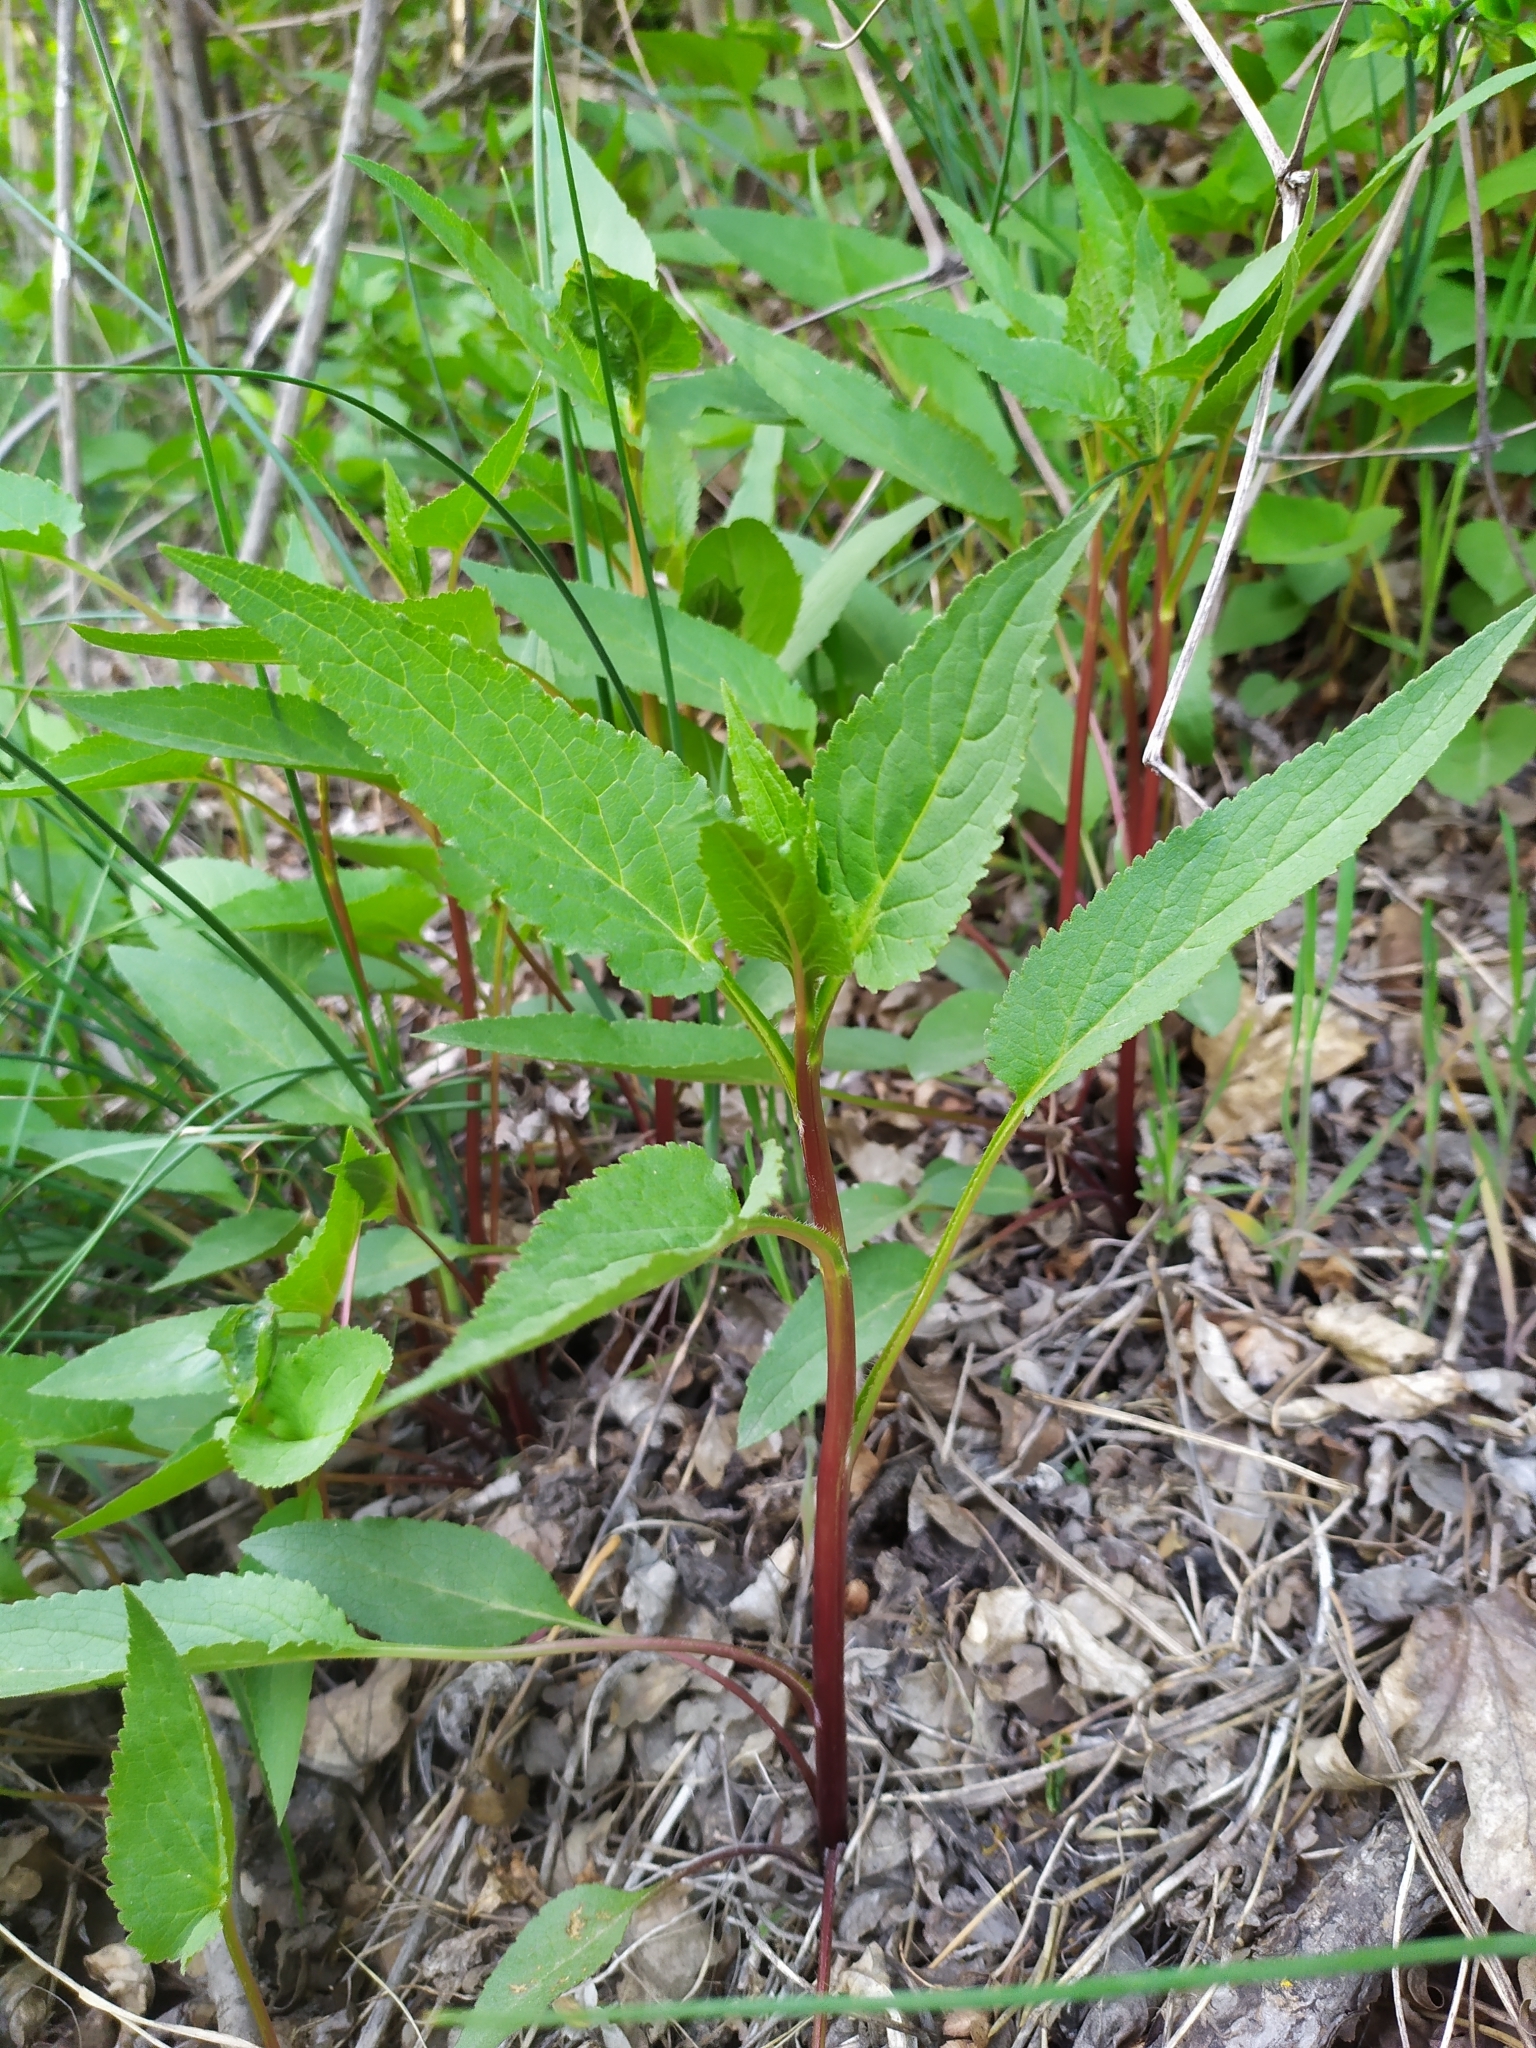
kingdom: Plantae
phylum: Tracheophyta
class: Magnoliopsida
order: Asterales
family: Campanulaceae
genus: Campanula
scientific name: Campanula rapunculoides
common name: Creeping bellflower
